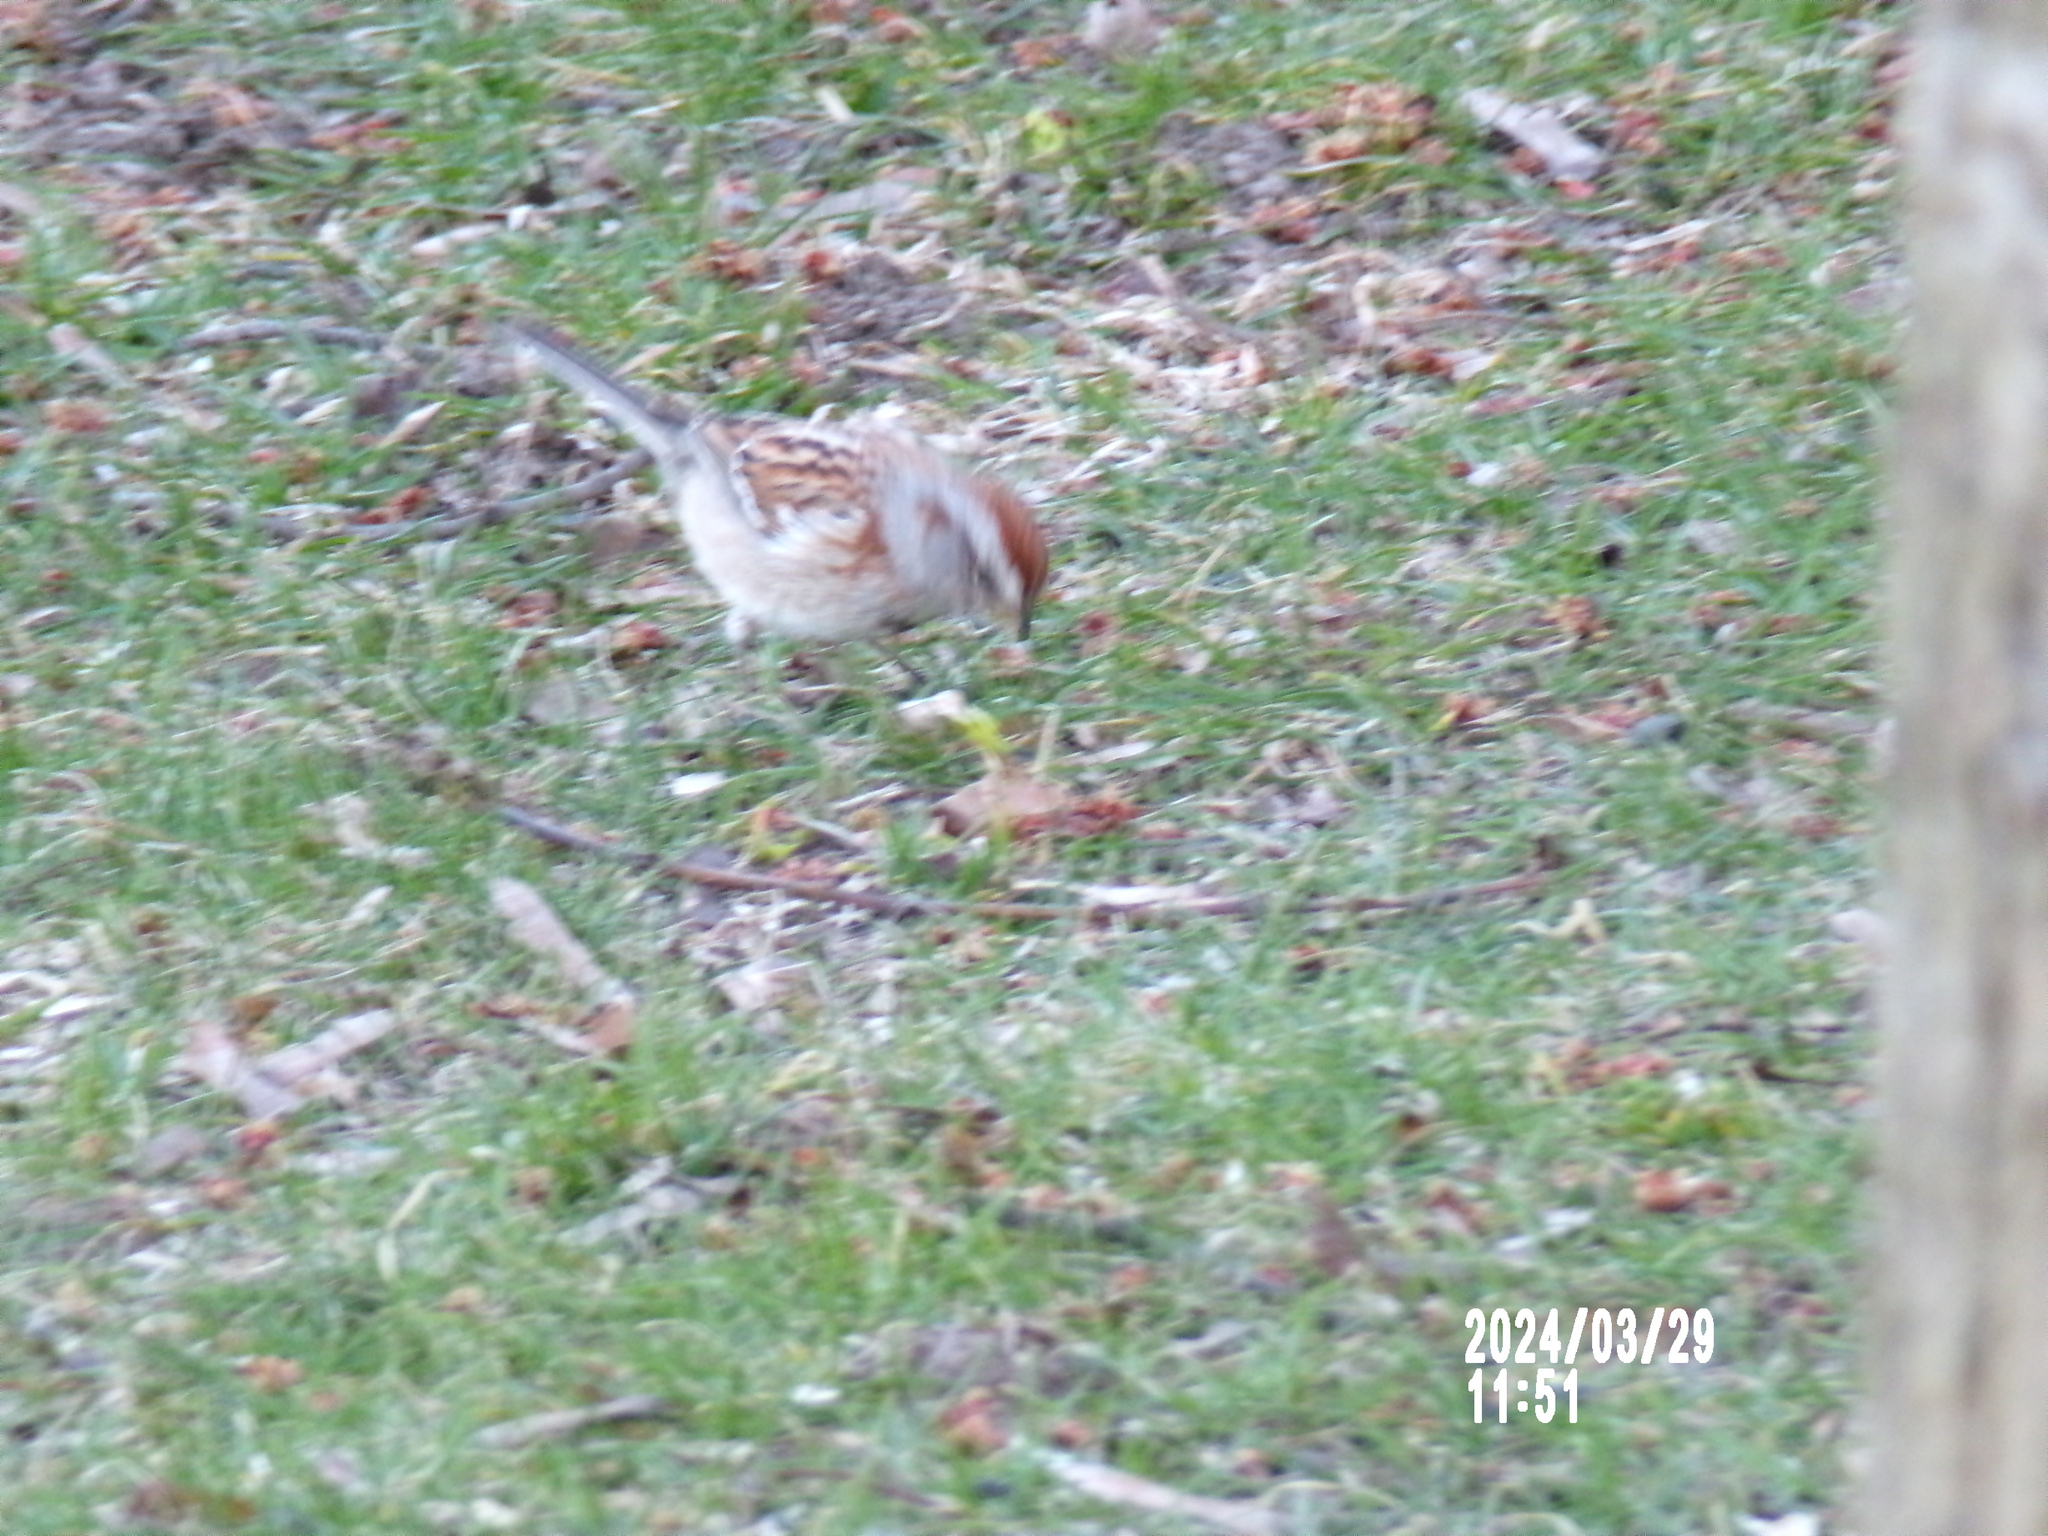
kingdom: Animalia
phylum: Chordata
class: Aves
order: Passeriformes
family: Passerellidae
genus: Spizelloides
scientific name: Spizelloides arborea
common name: American tree sparrow
